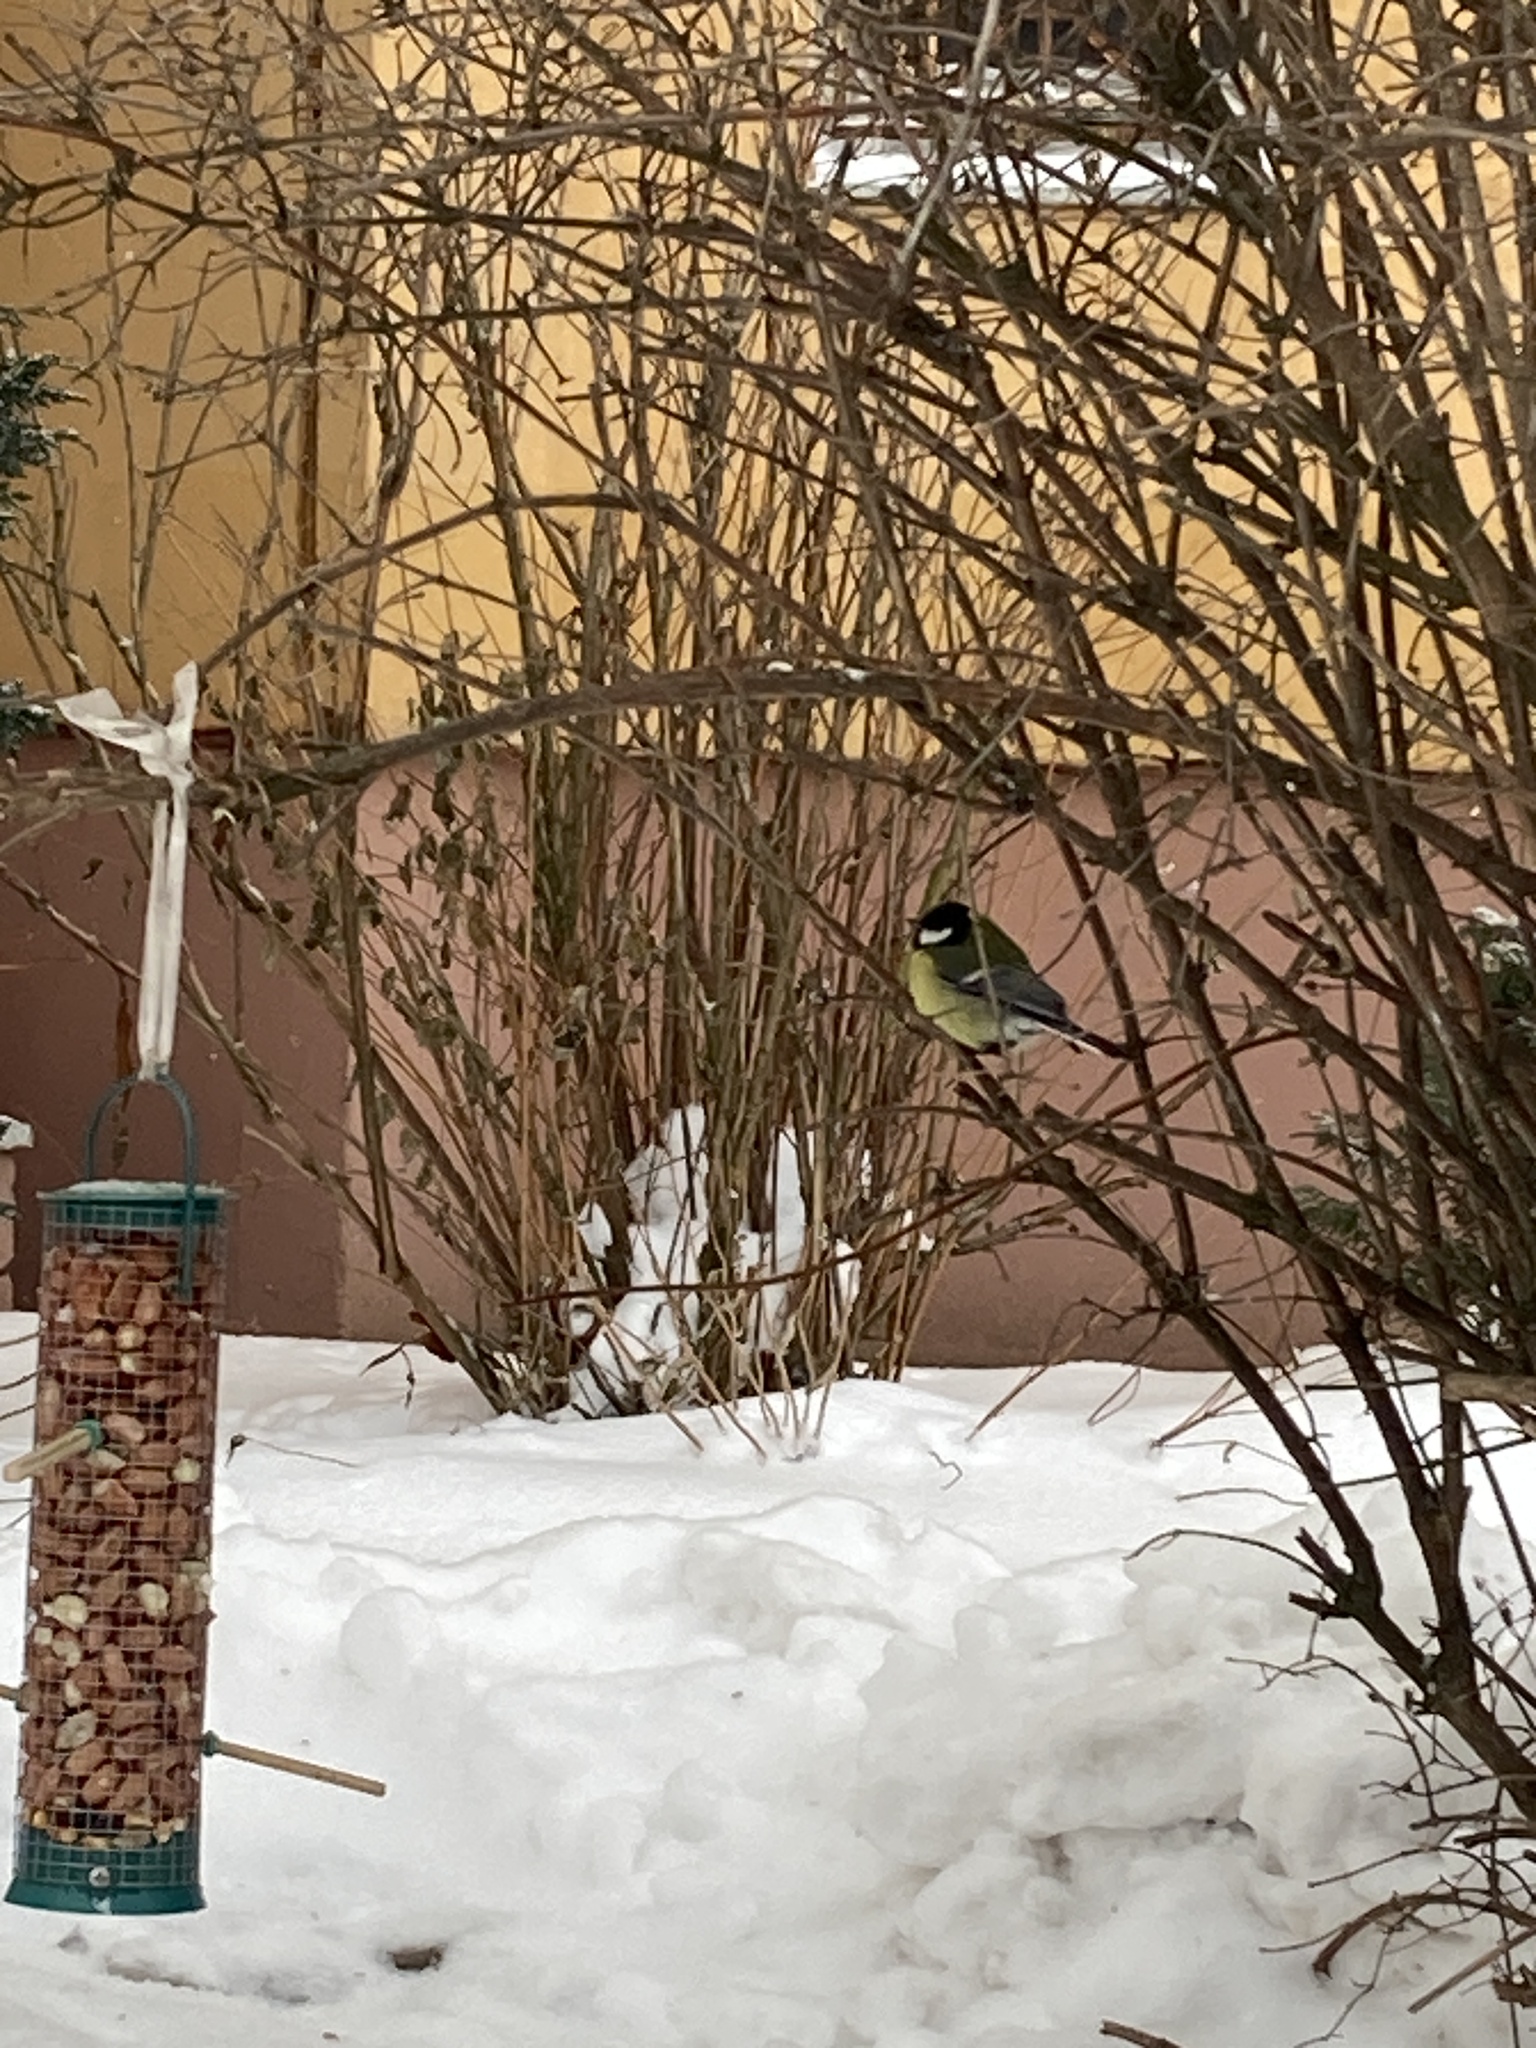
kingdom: Animalia
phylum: Chordata
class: Aves
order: Passeriformes
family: Paridae
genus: Parus
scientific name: Parus major
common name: Great tit
